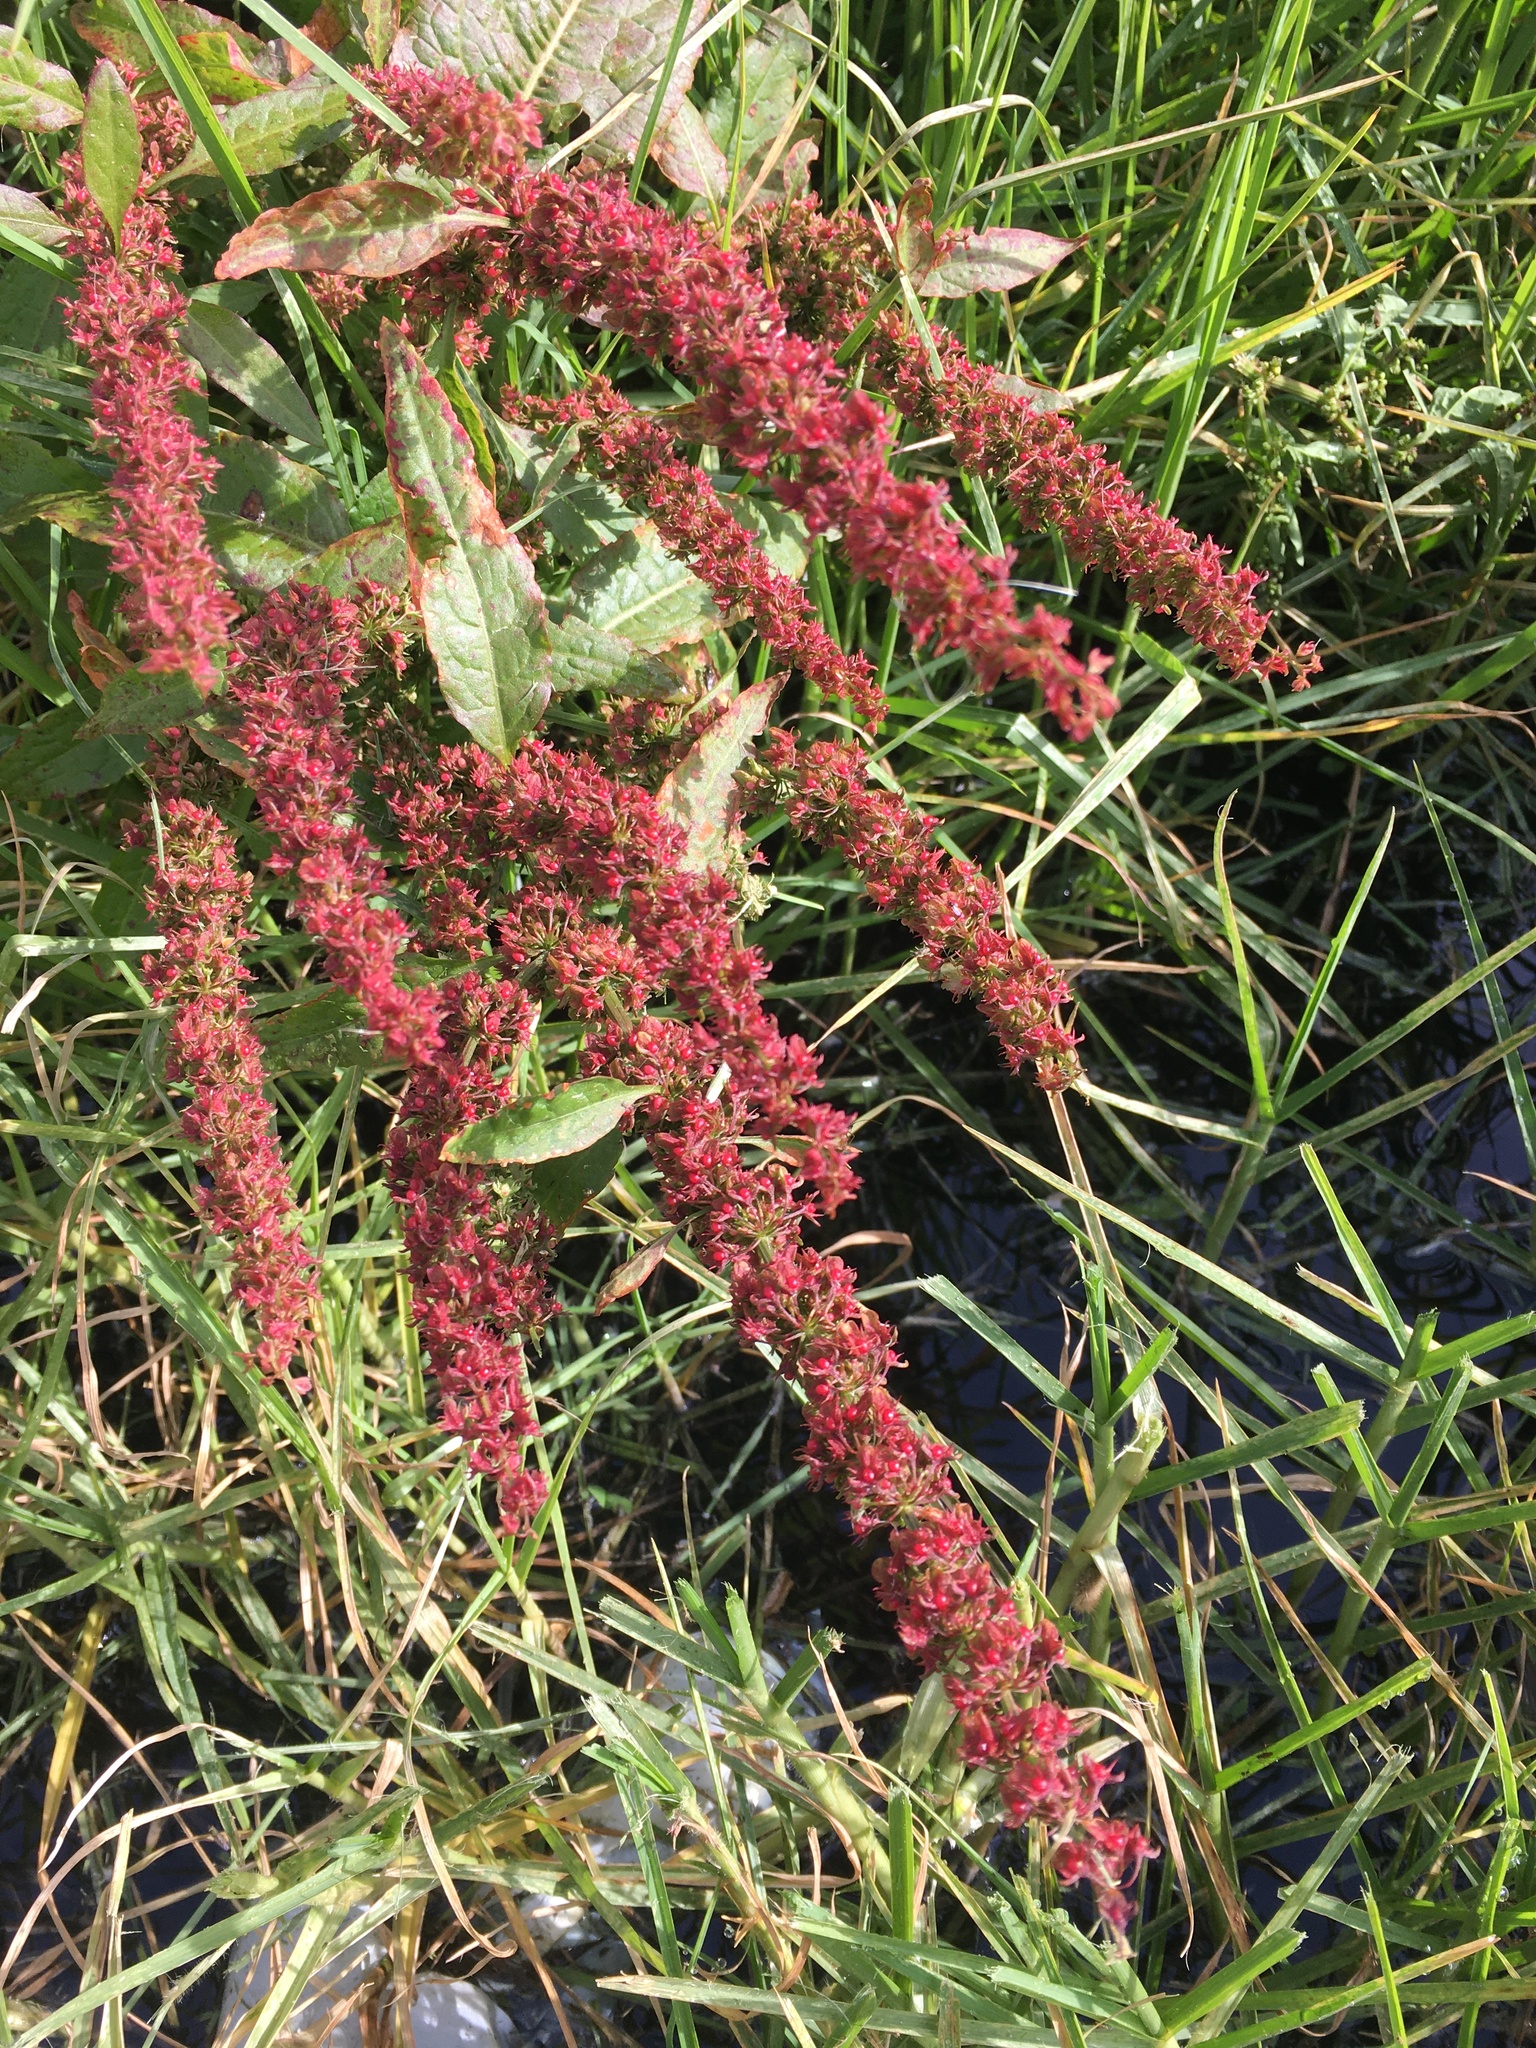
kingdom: Plantae
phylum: Tracheophyta
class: Magnoliopsida
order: Caryophyllales
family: Polygonaceae
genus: Rumex
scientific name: Rumex crispus
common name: Curled dock
